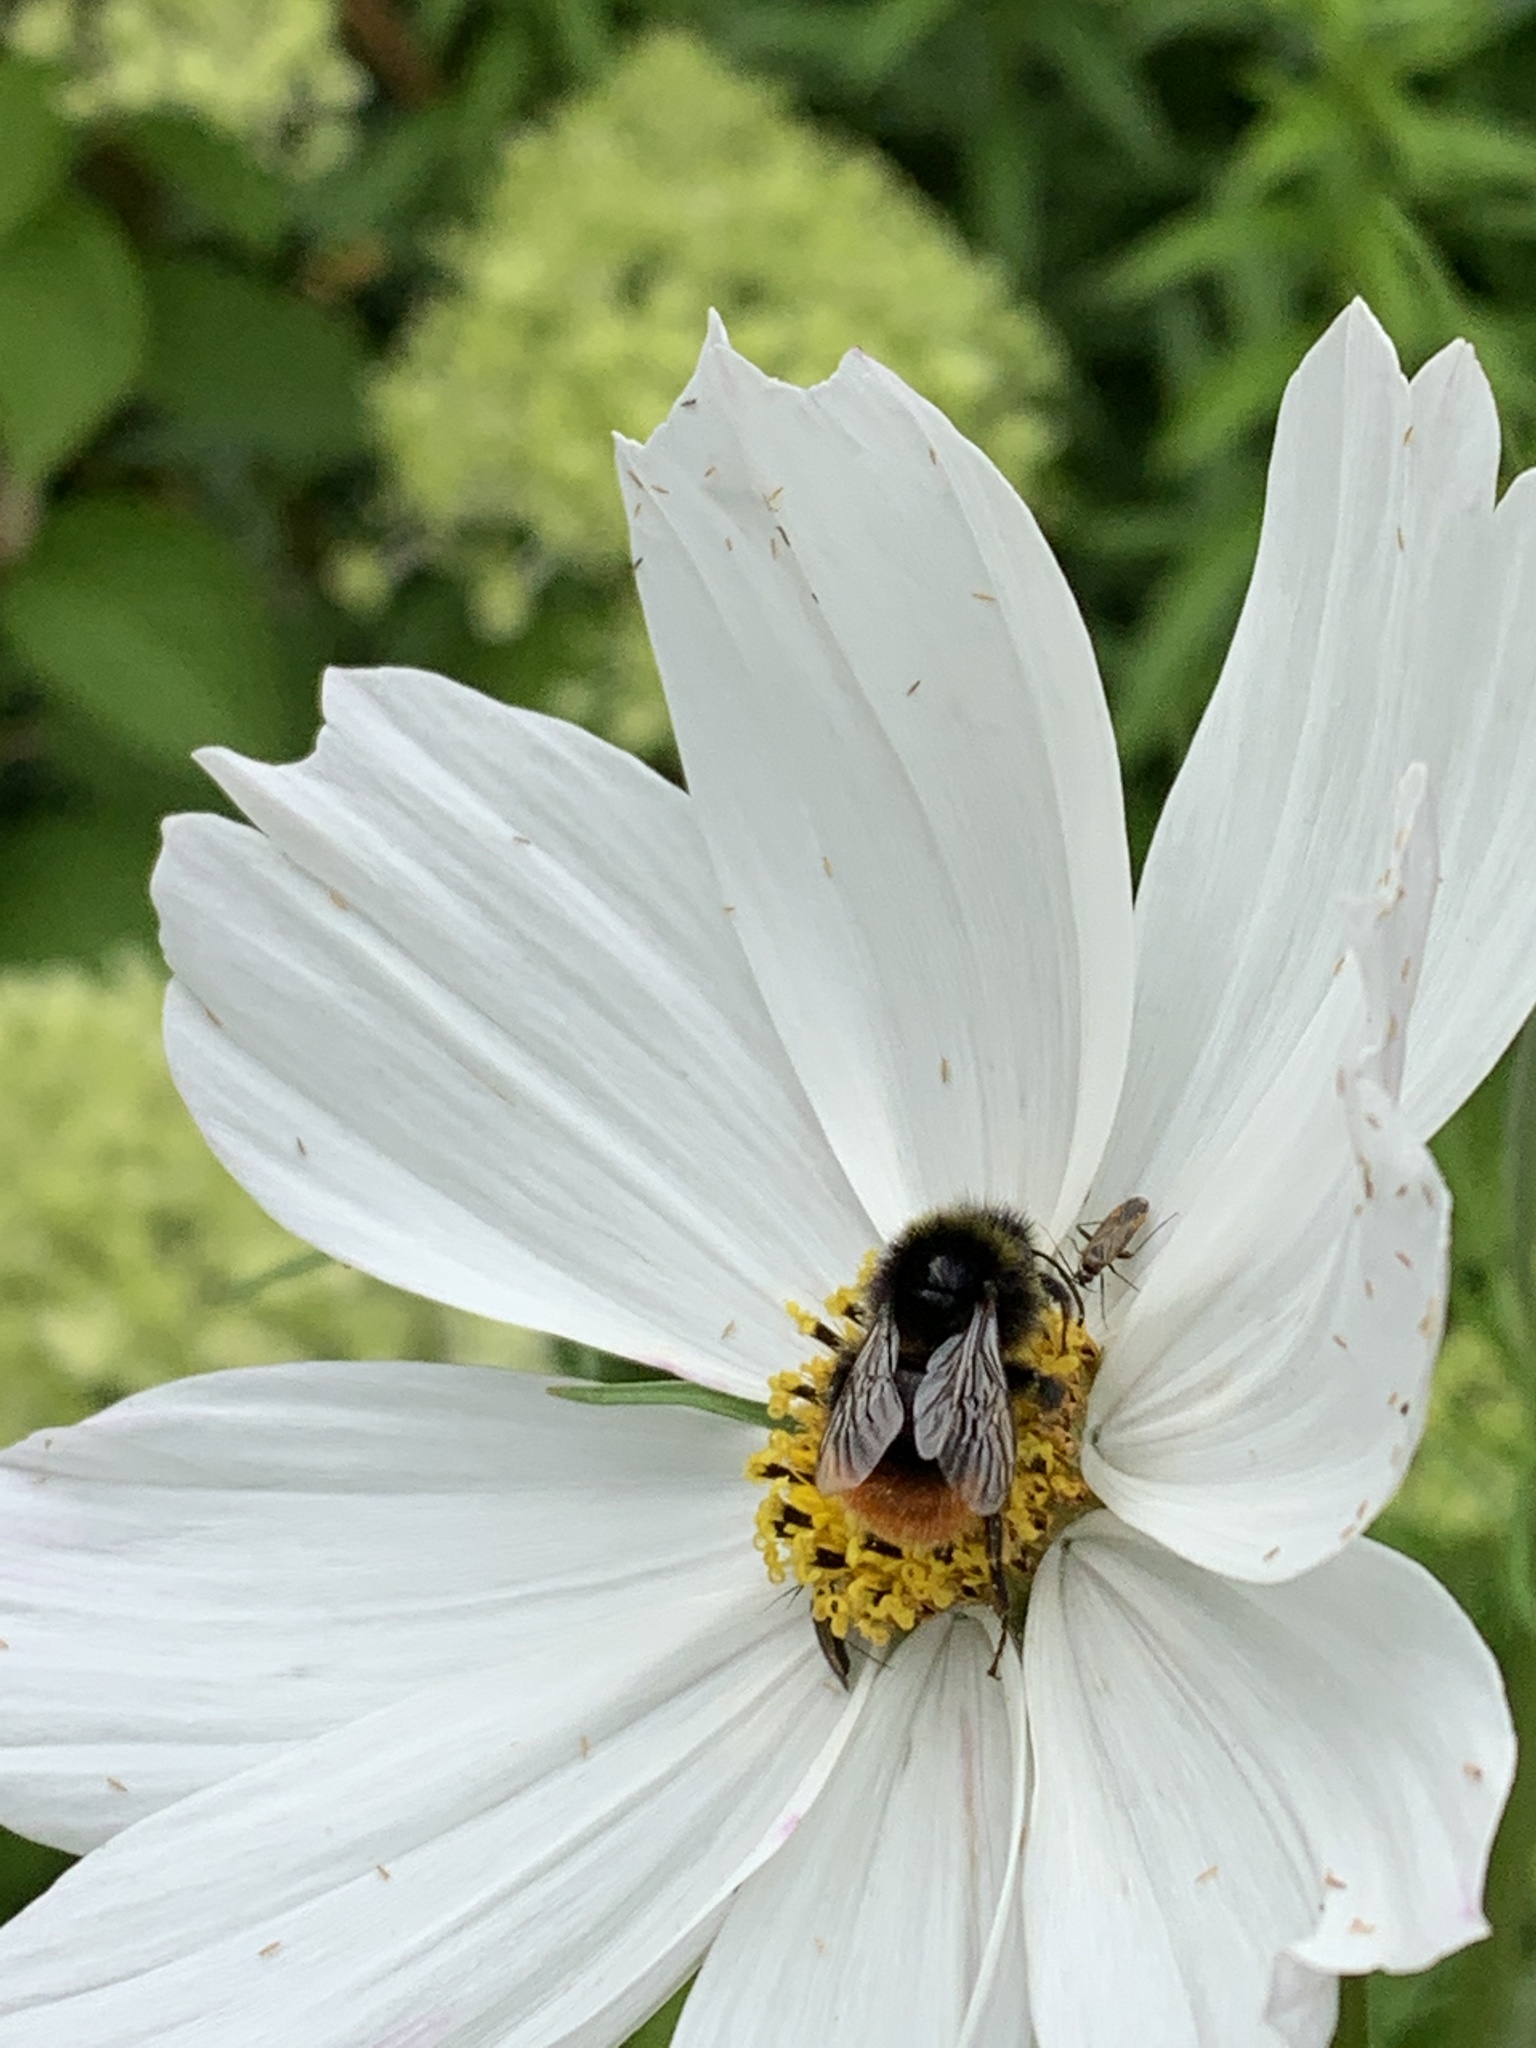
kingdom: Animalia
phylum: Arthropoda
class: Insecta
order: Hymenoptera
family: Apidae
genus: Bombus
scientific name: Bombus lapidarius
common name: Large red-tailed humble-bee
